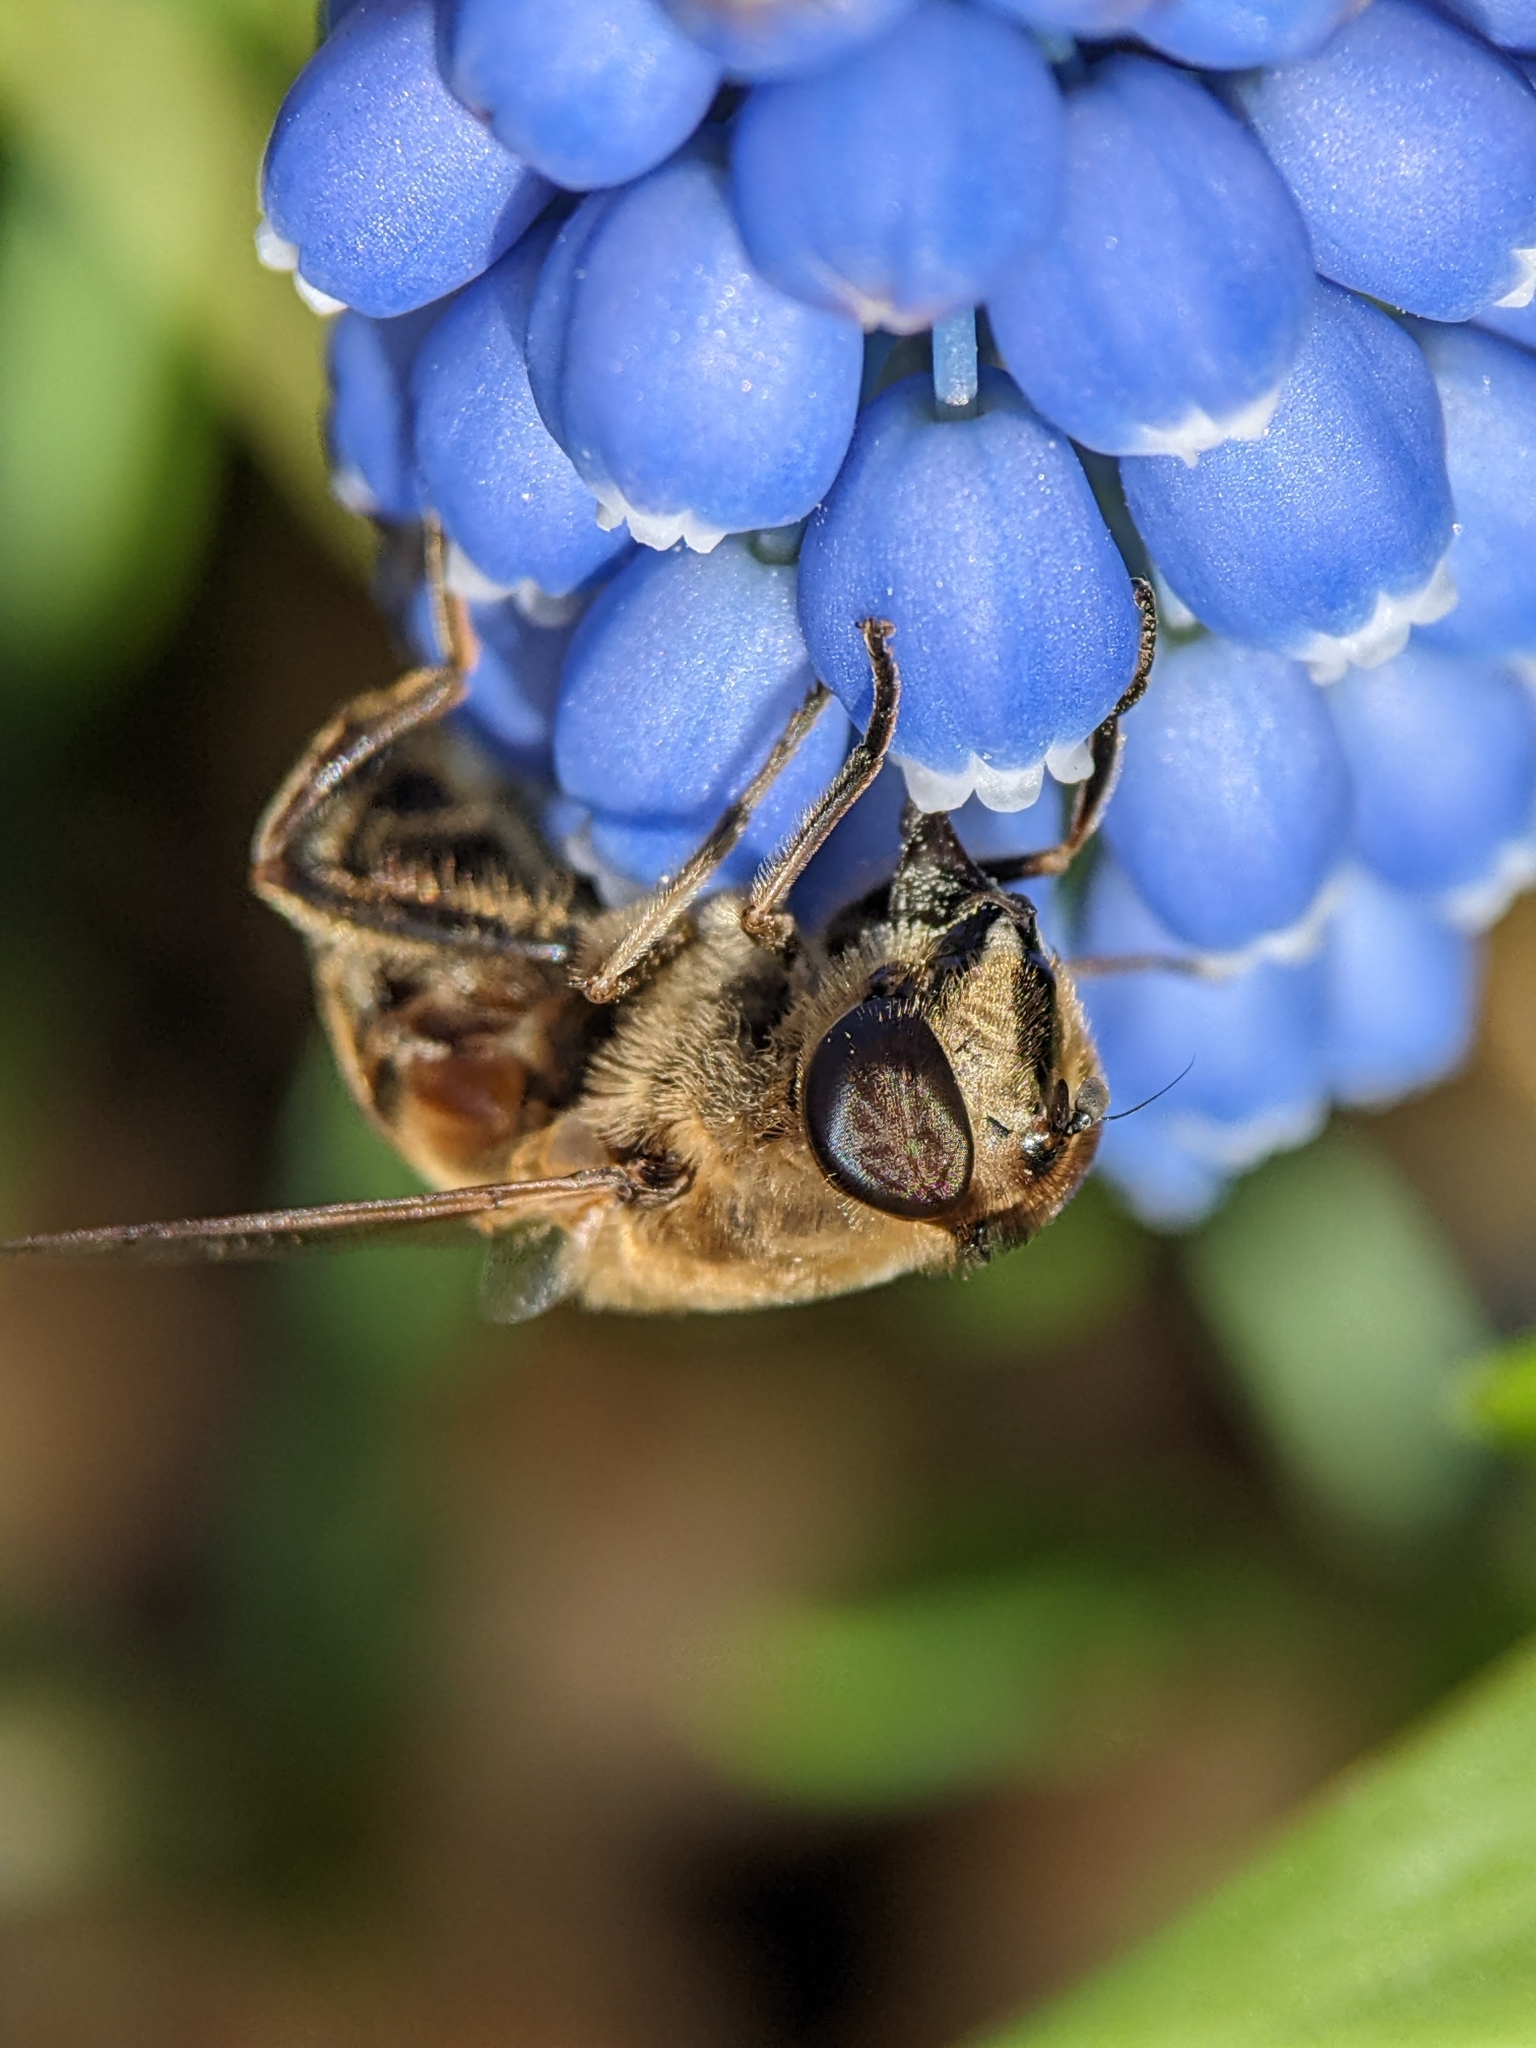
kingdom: Animalia
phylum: Arthropoda
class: Insecta
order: Diptera
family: Syrphidae
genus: Eristalis
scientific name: Eristalis tenax
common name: Drone fly
